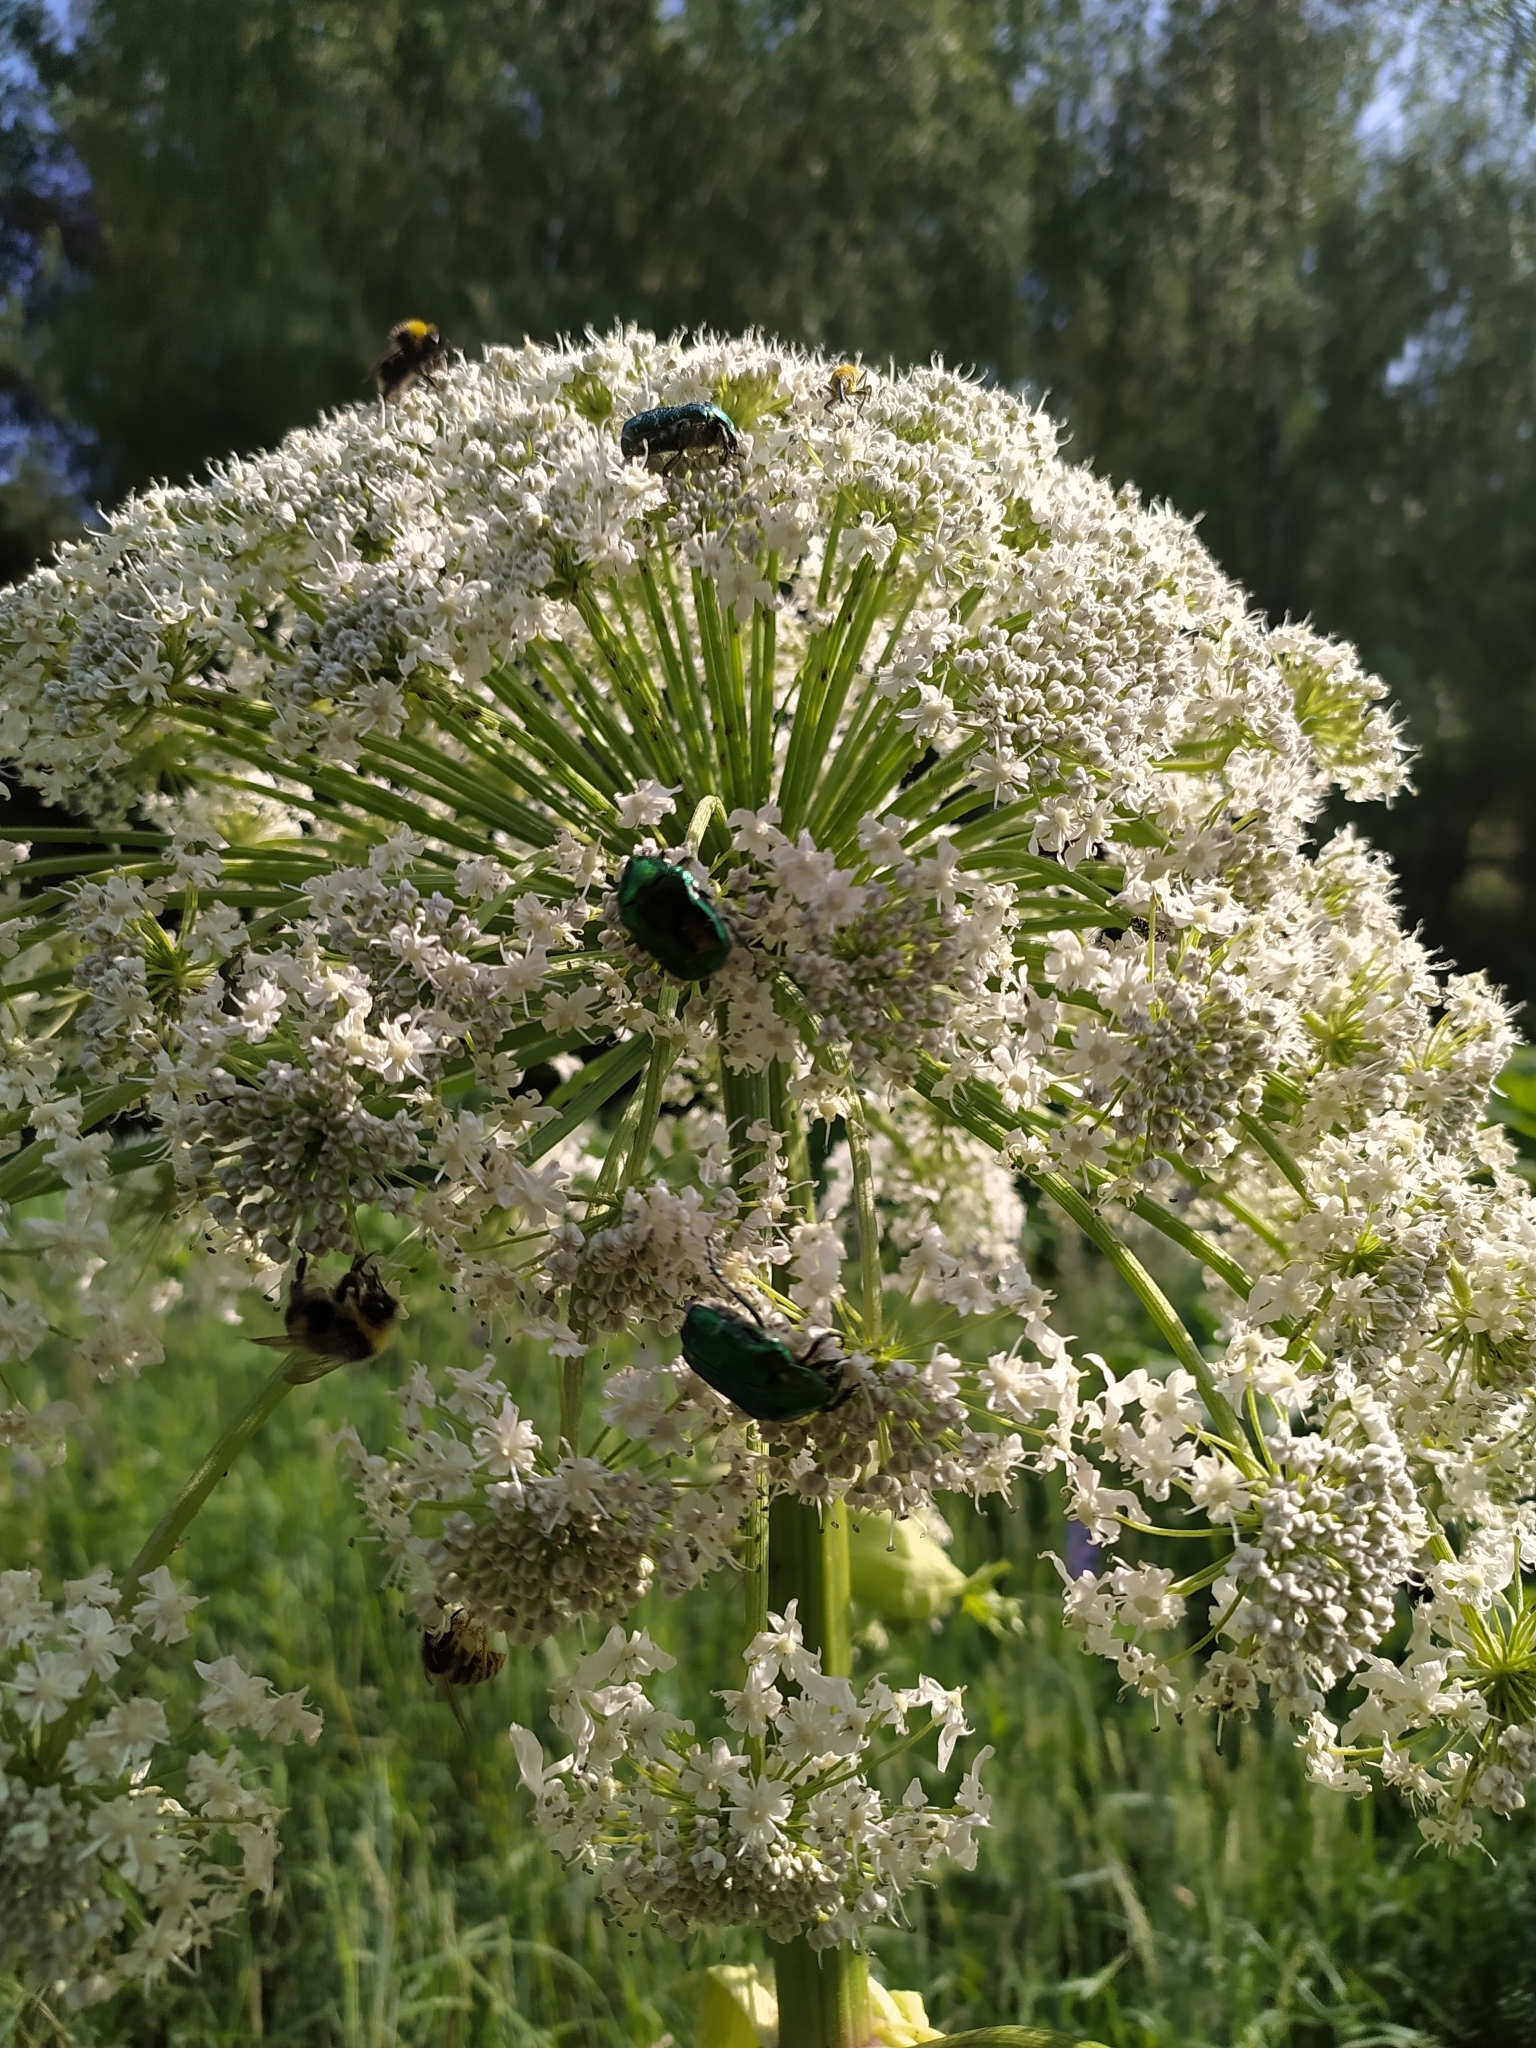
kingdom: Animalia
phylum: Arthropoda
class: Insecta
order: Coleoptera
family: Scarabaeidae
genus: Cetonia
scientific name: Cetonia aurata
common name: Rose chafer
